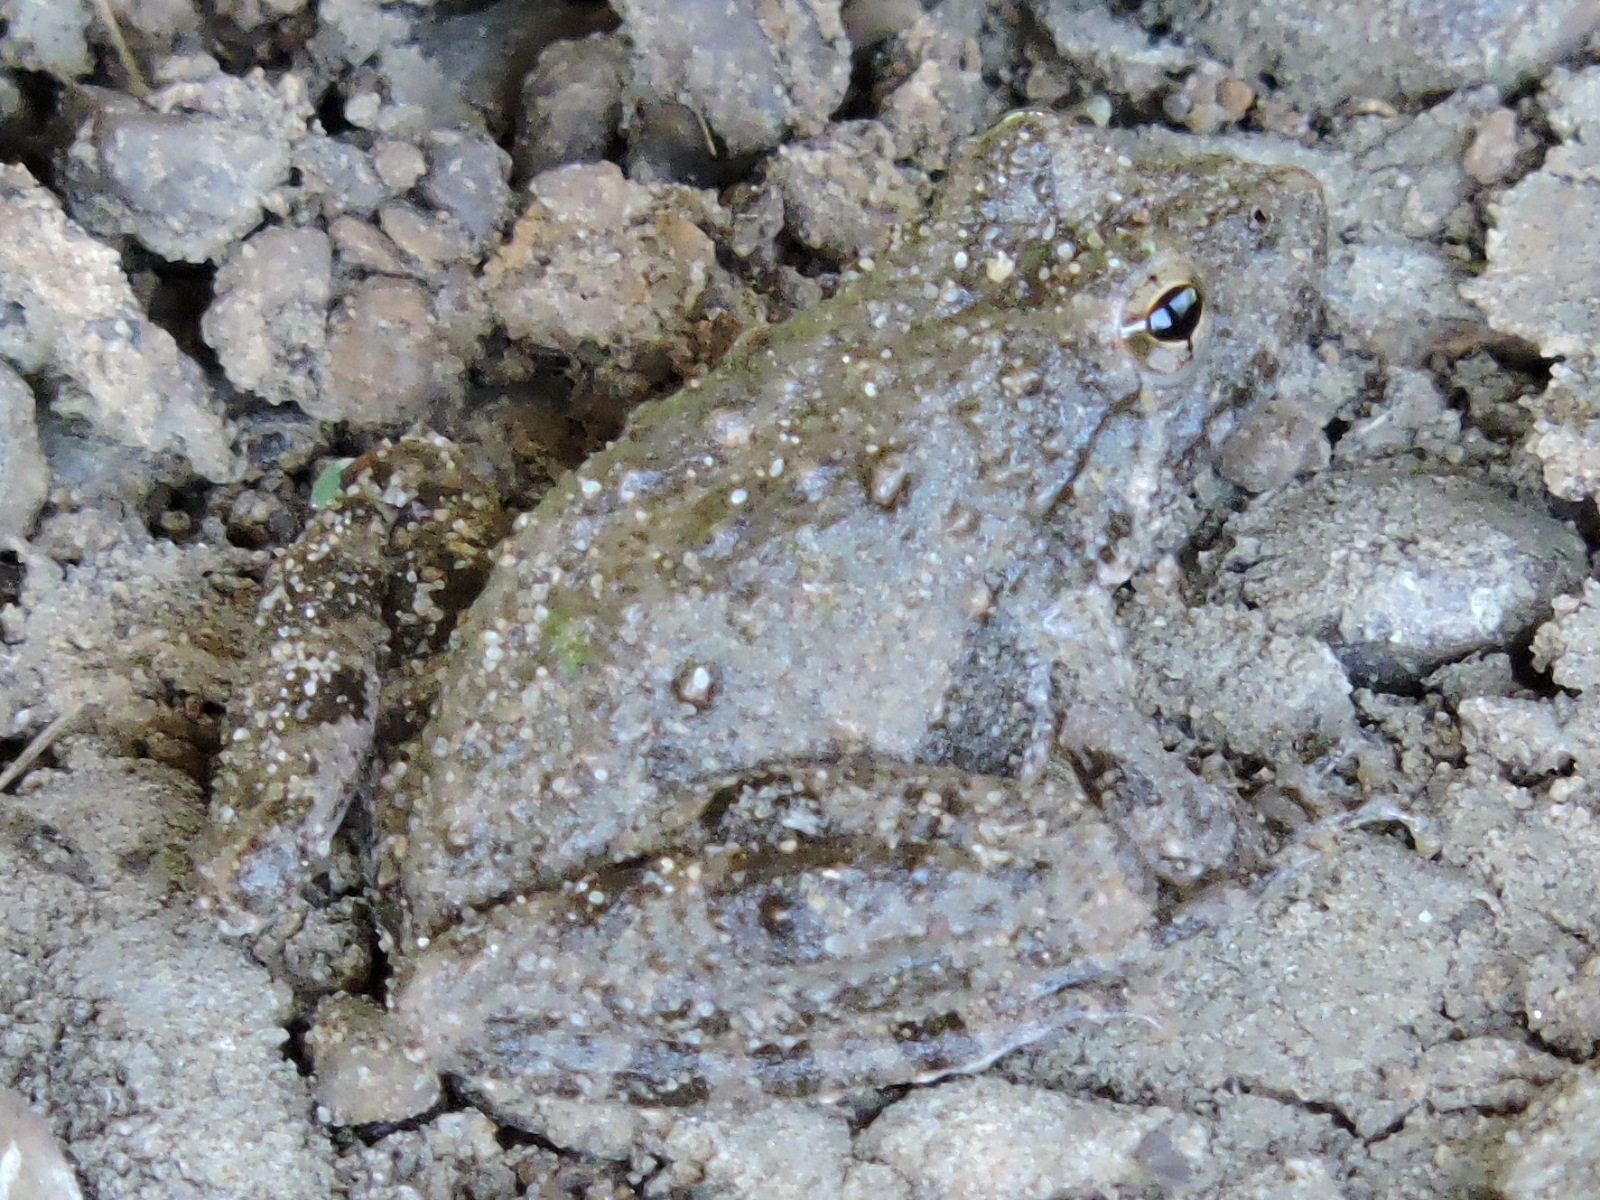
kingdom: Animalia
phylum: Chordata
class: Amphibia
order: Anura
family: Hylidae
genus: Acris
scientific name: Acris blanchardi
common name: Blanchard's cricket frog
